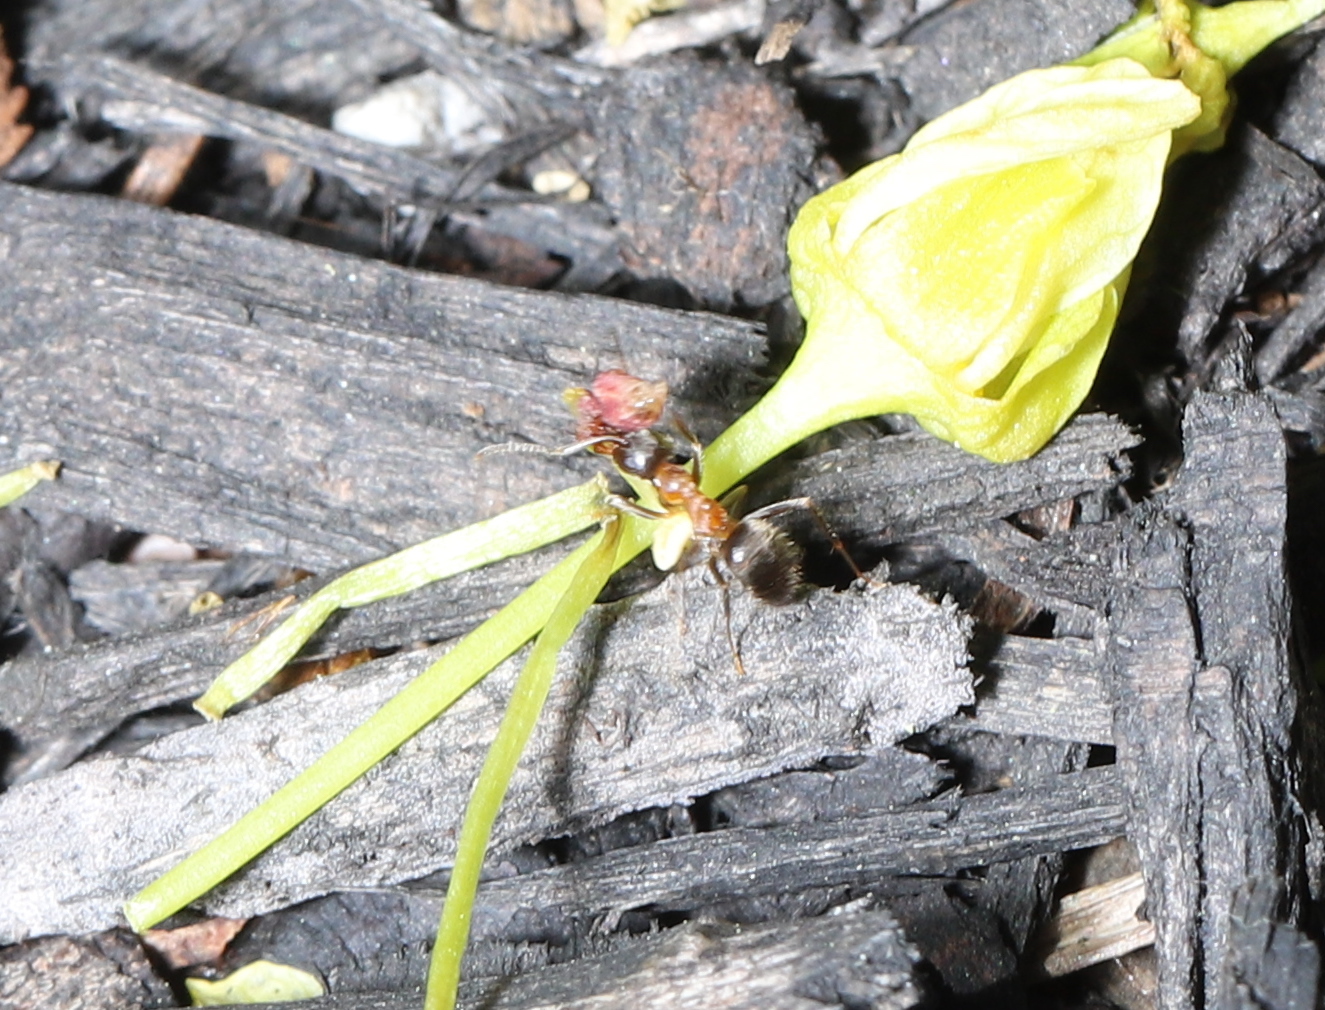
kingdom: Animalia
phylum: Arthropoda
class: Insecta
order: Hymenoptera
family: Formicidae
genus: Lasius
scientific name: Lasius emarginatus
